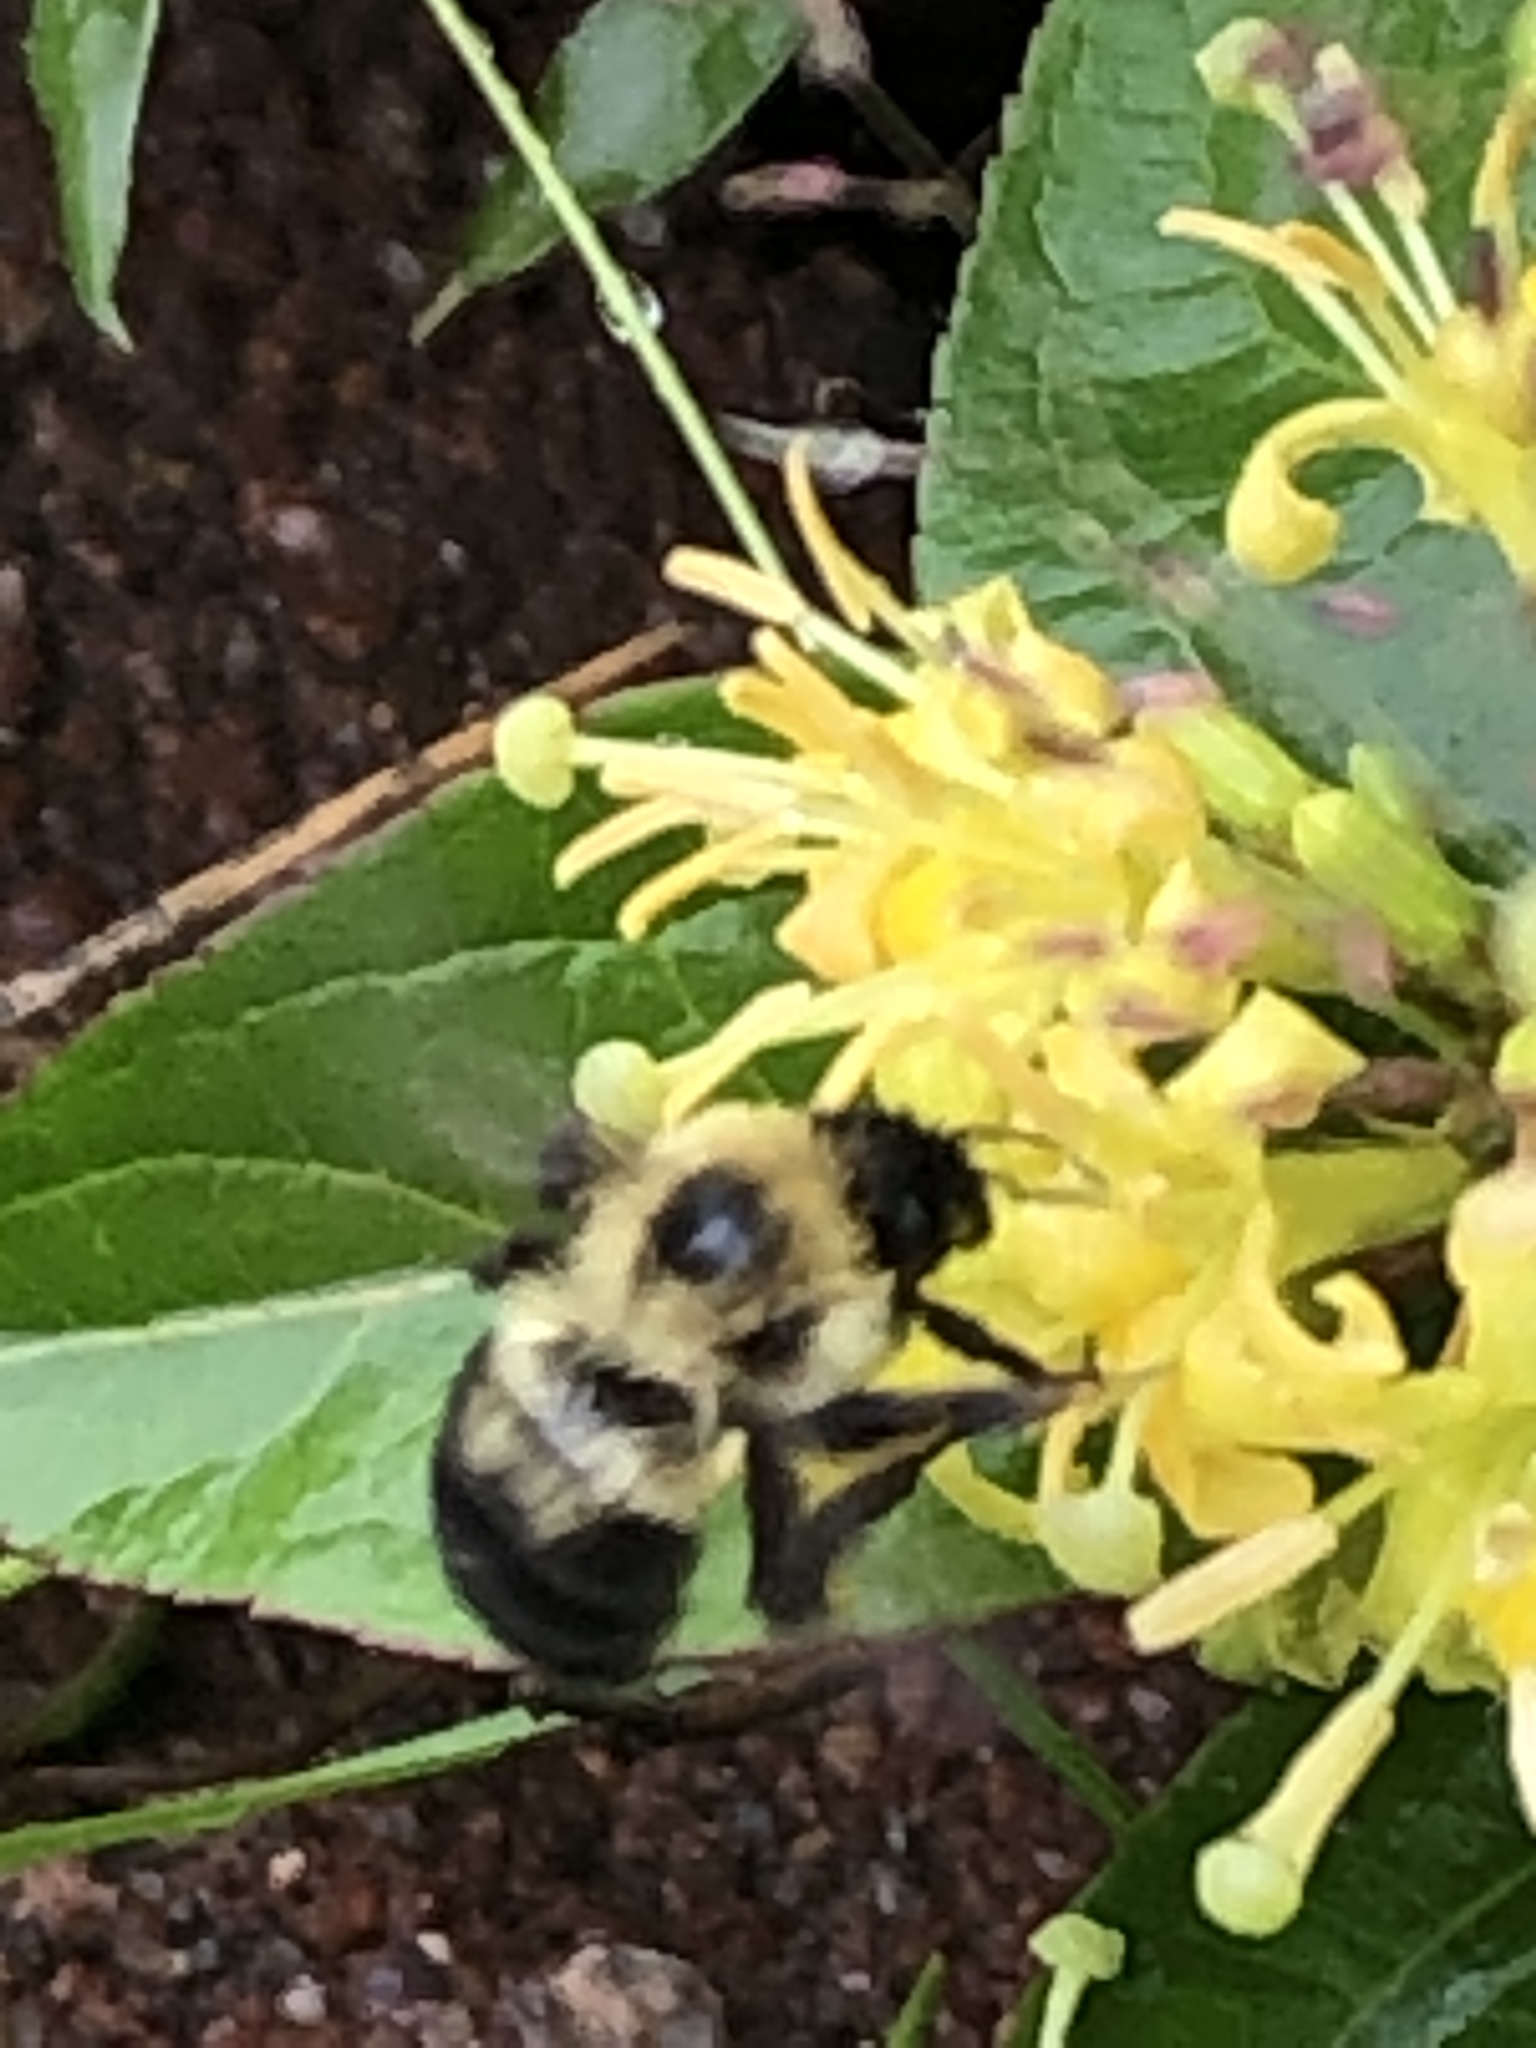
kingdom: Animalia
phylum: Arthropoda
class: Insecta
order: Hymenoptera
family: Apidae
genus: Bombus
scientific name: Bombus bimaculatus
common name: Two-spotted bumble bee
